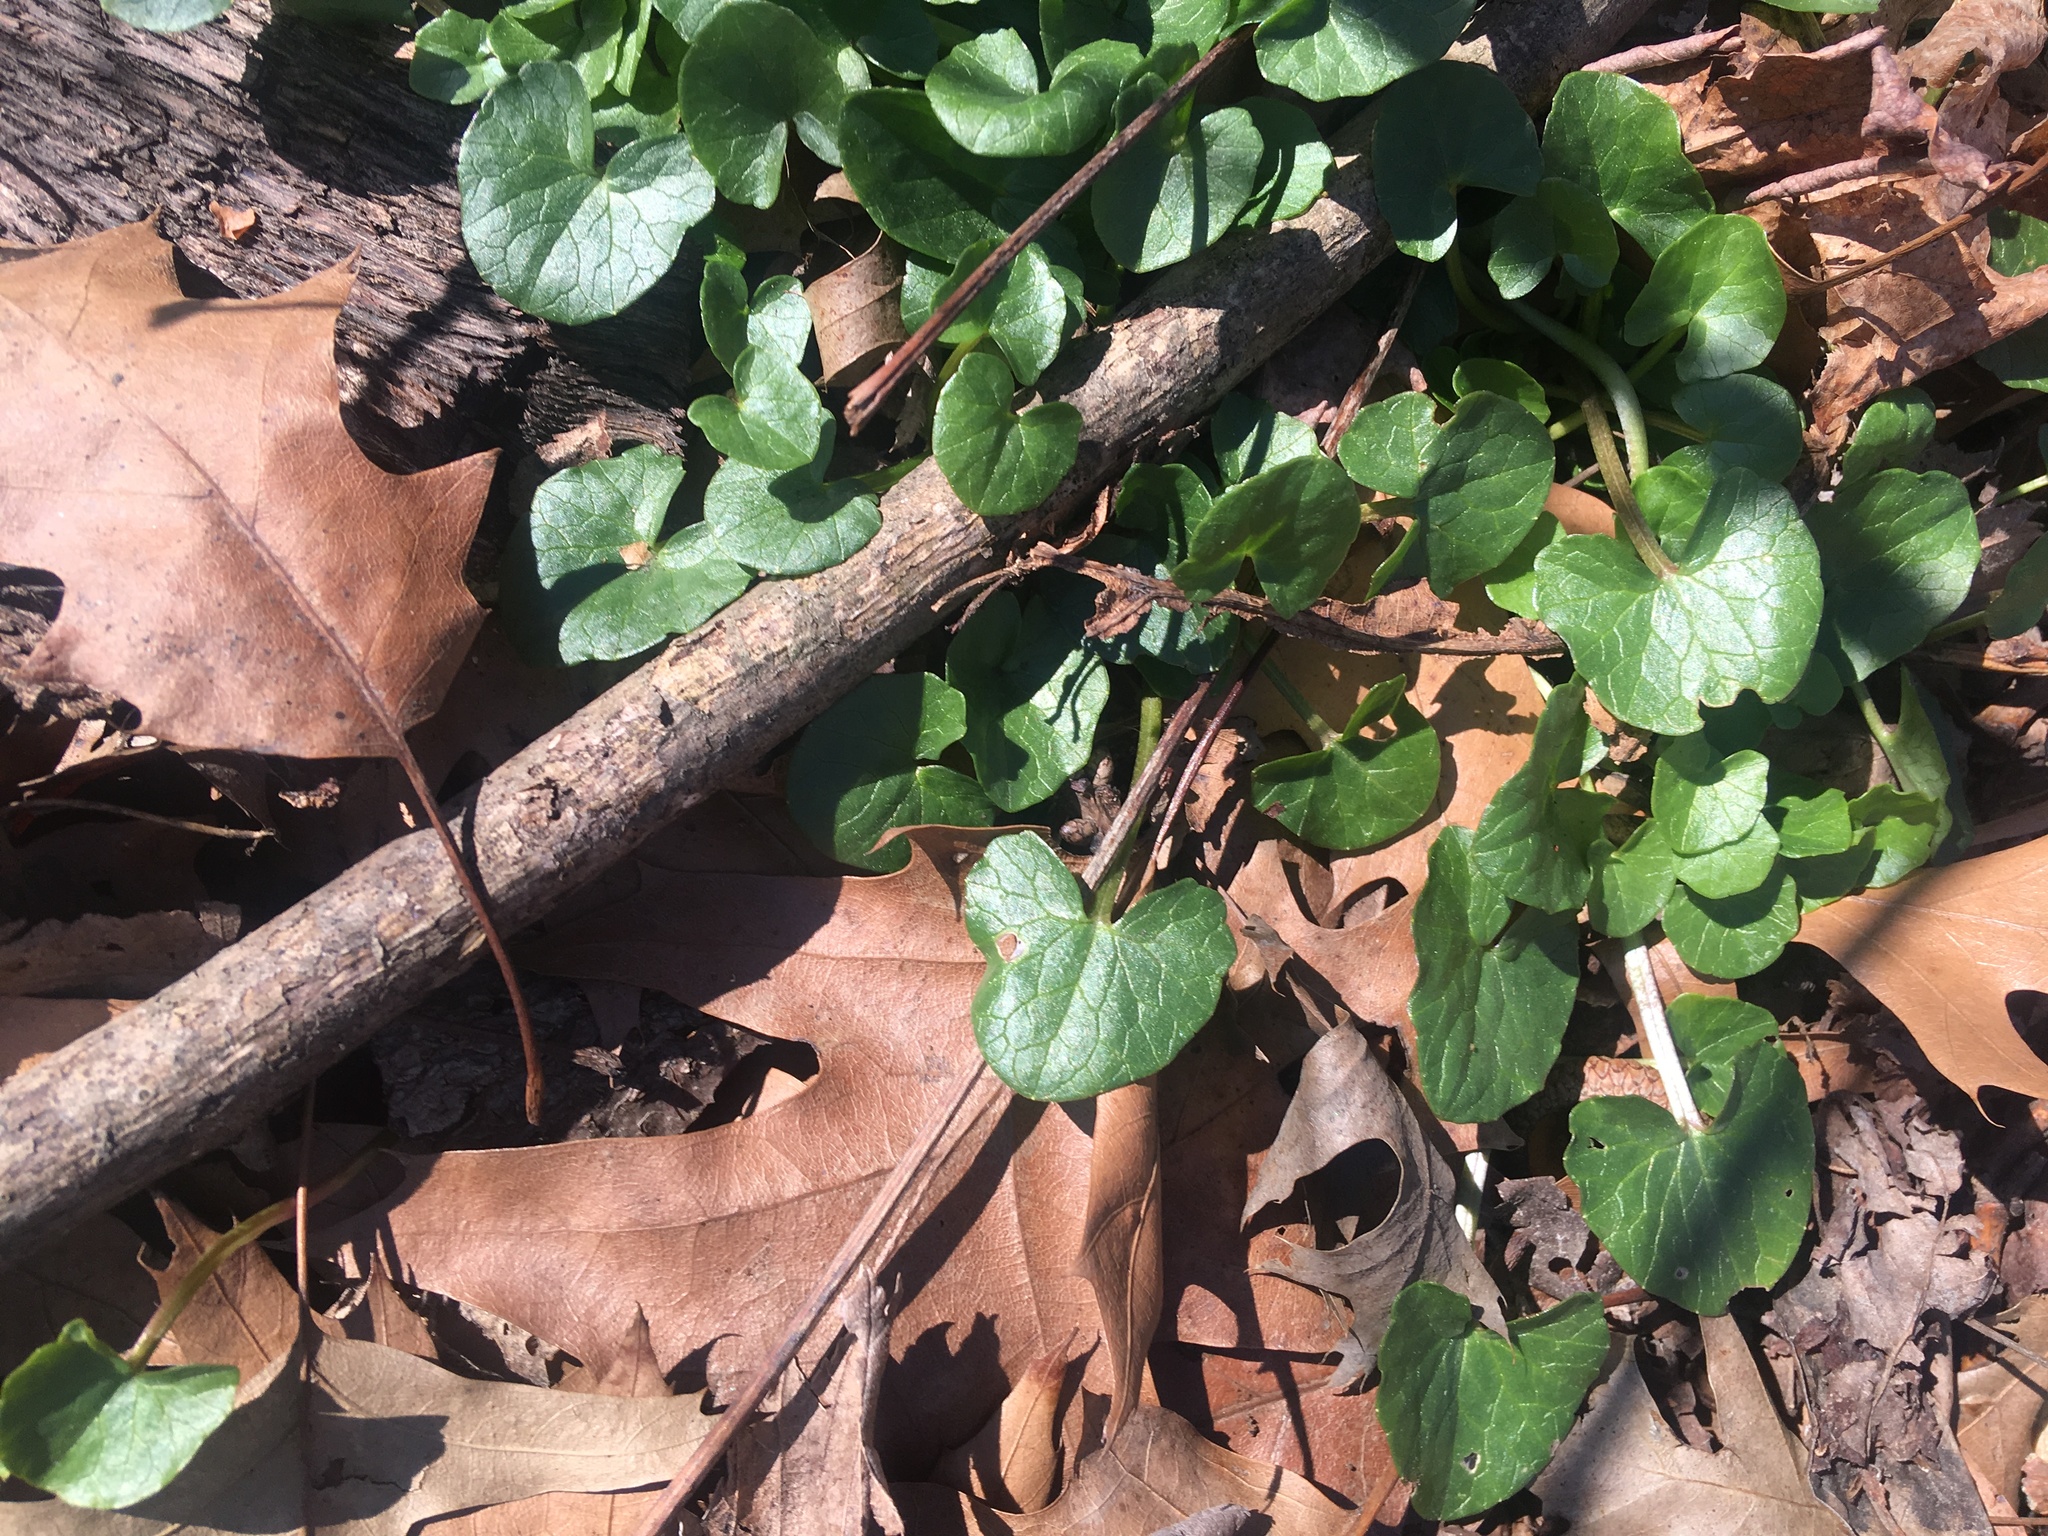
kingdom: Plantae
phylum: Tracheophyta
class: Magnoliopsida
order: Ranunculales
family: Ranunculaceae
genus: Ficaria
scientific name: Ficaria verna
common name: Lesser celandine
